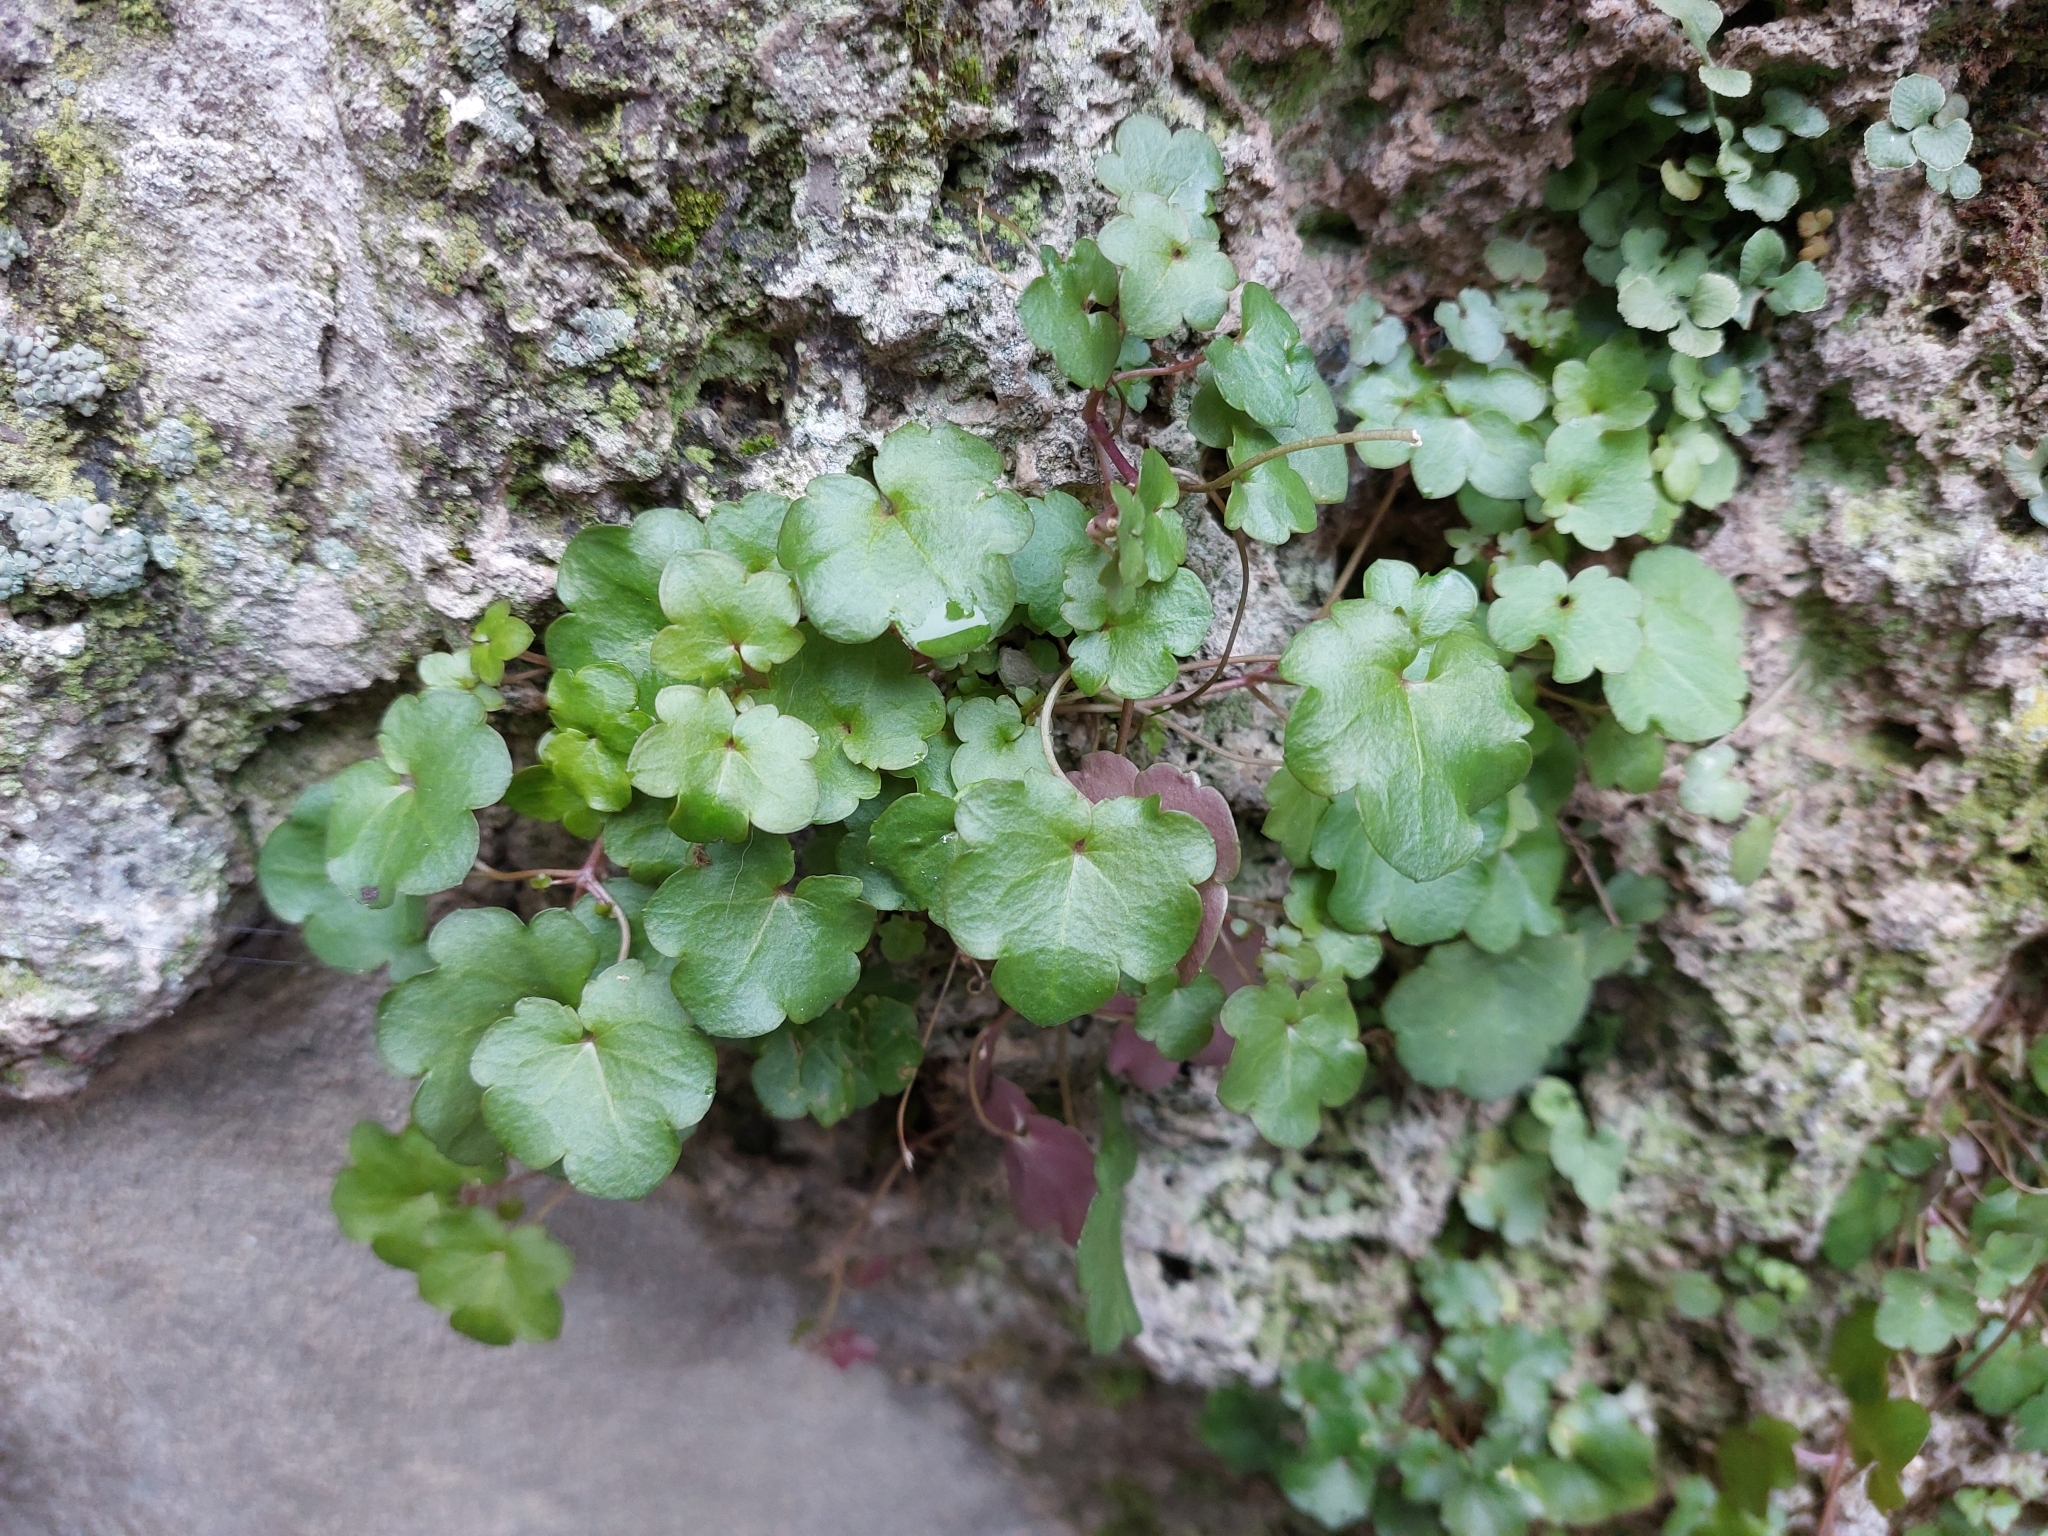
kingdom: Plantae
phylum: Tracheophyta
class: Magnoliopsida
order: Lamiales
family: Plantaginaceae
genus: Cymbalaria
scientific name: Cymbalaria muralis
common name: Ivy-leaved toadflax
